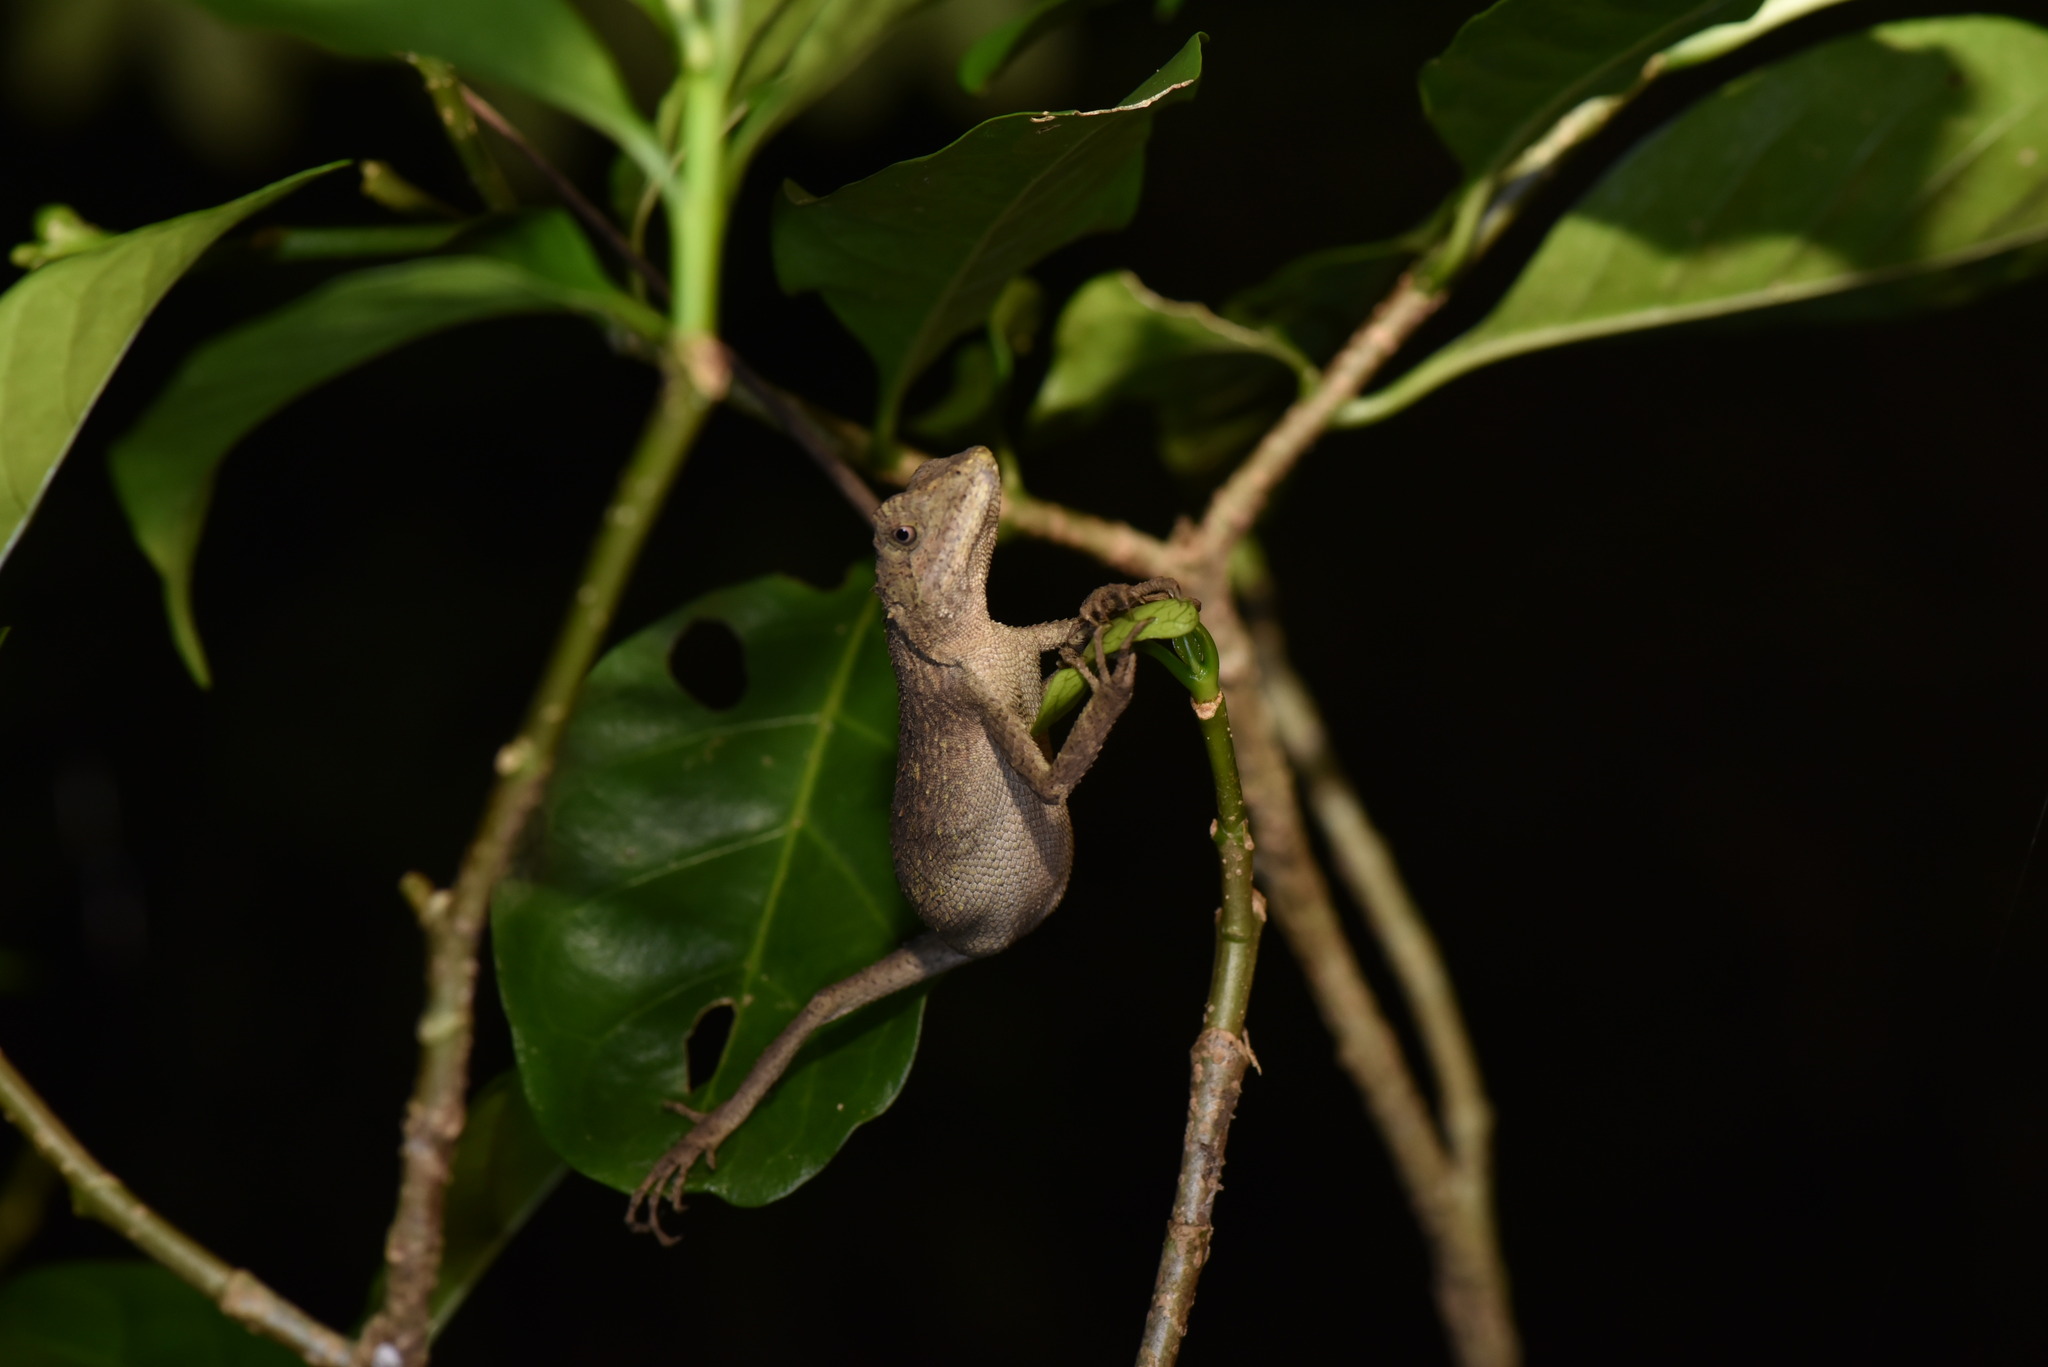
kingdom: Animalia
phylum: Chordata
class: Squamata
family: Agamidae
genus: Diploderma
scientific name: Diploderma swinhonis
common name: Taiwan japalure
